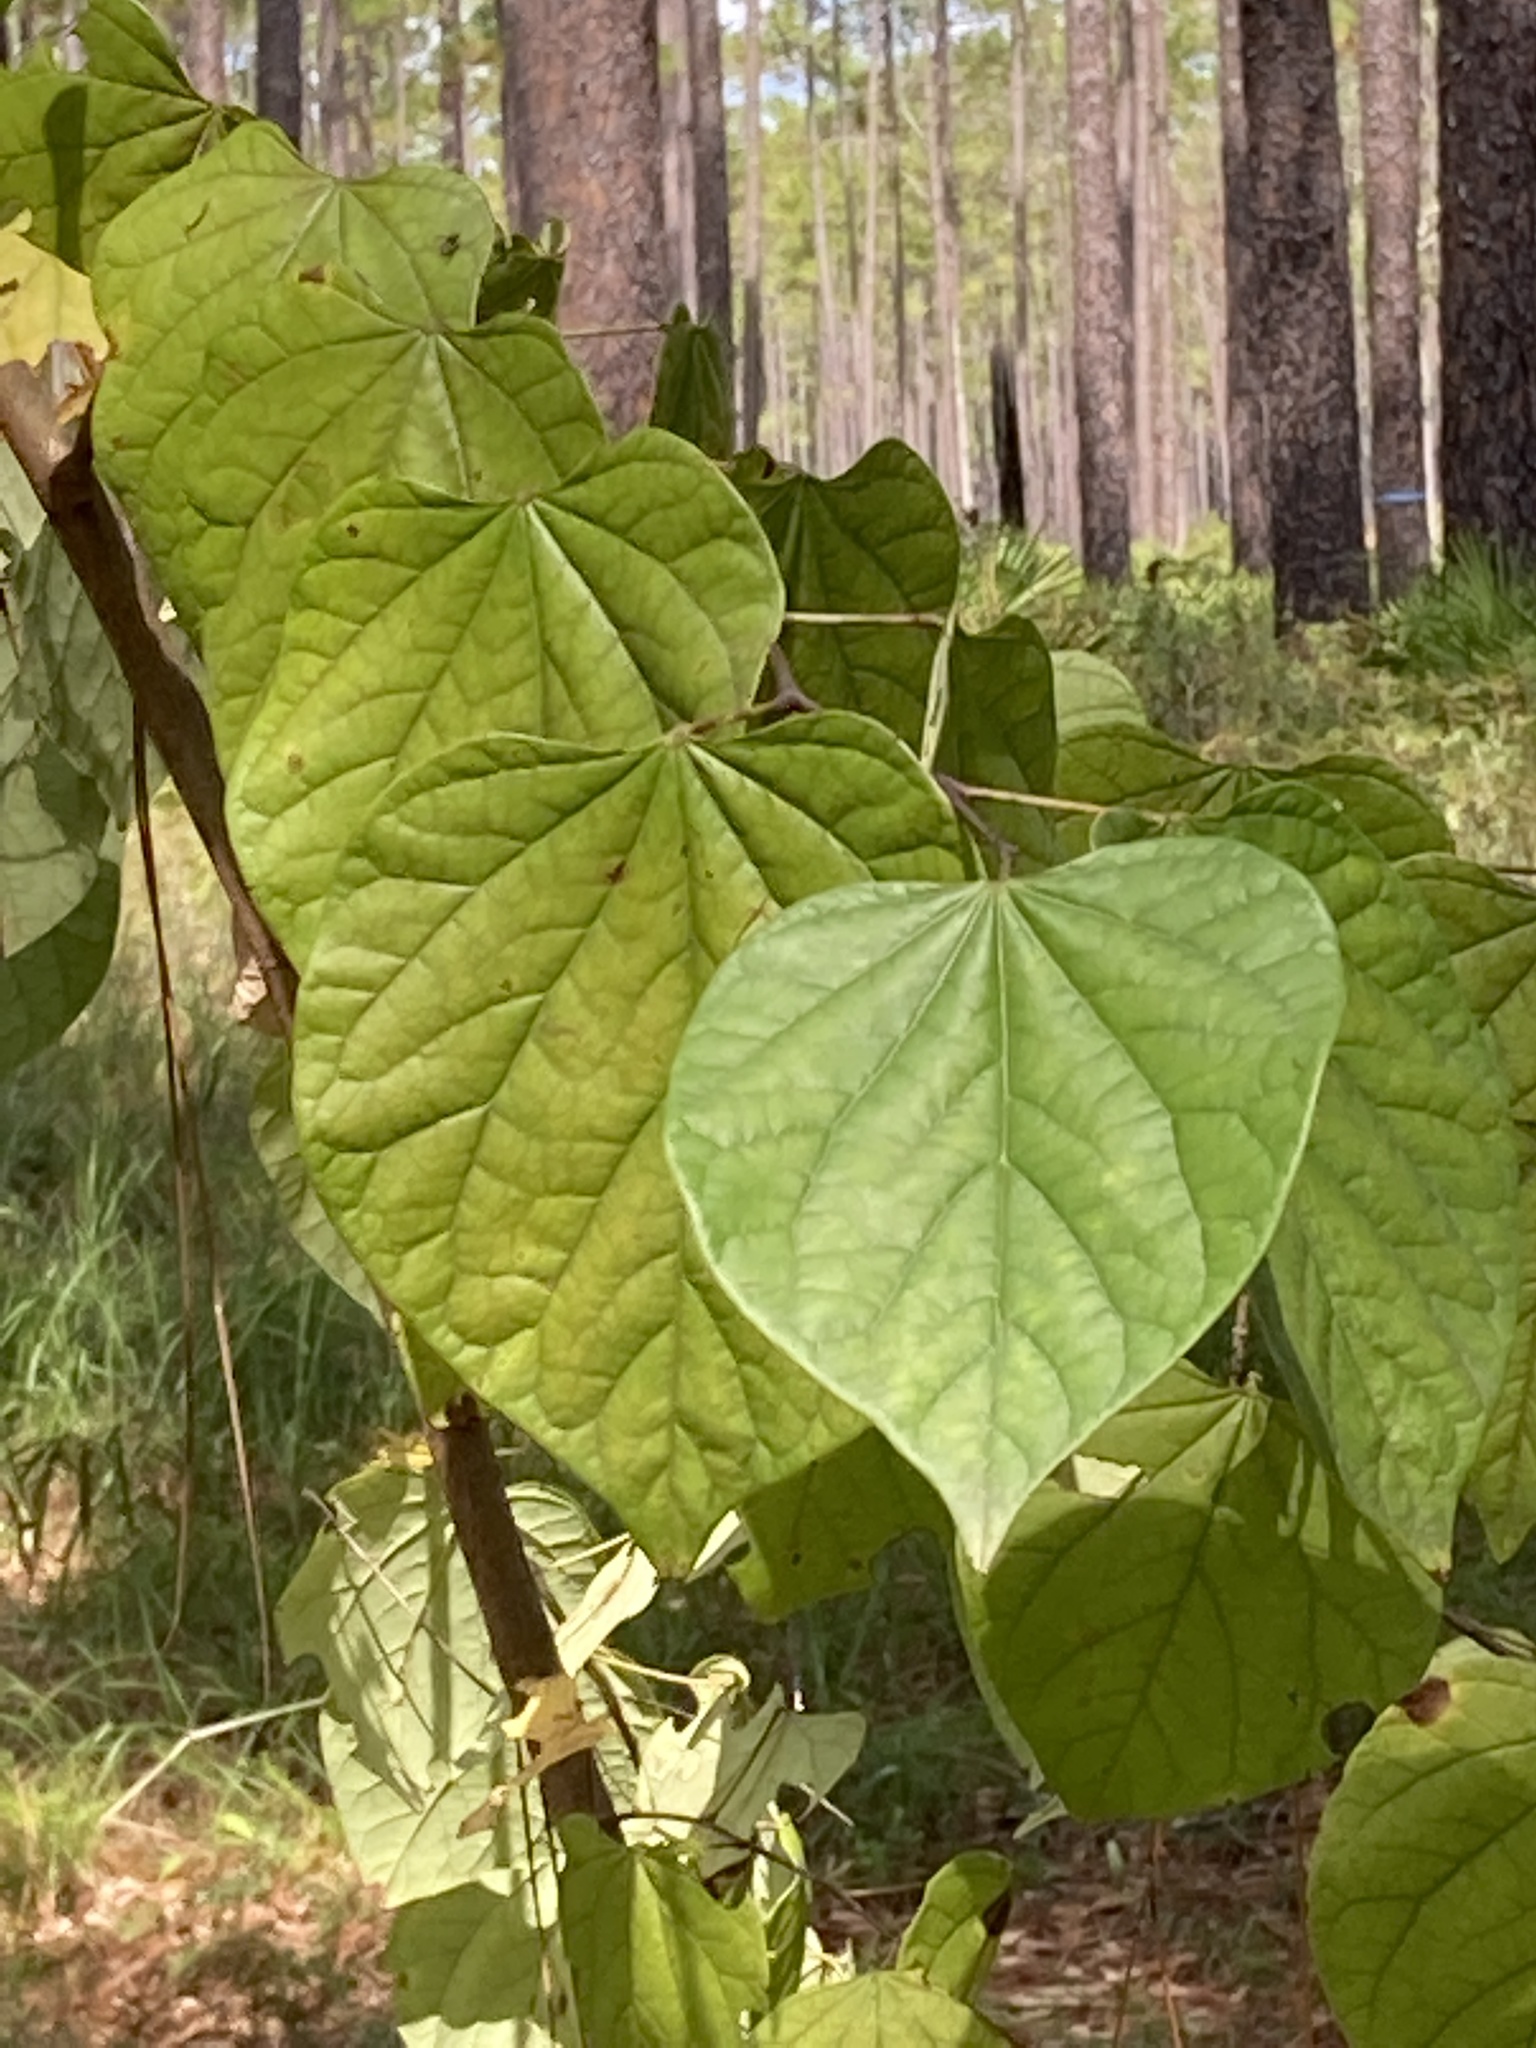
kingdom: Plantae
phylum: Tracheophyta
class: Magnoliopsida
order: Fabales
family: Fabaceae
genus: Cercis
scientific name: Cercis canadensis
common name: Eastern redbud
